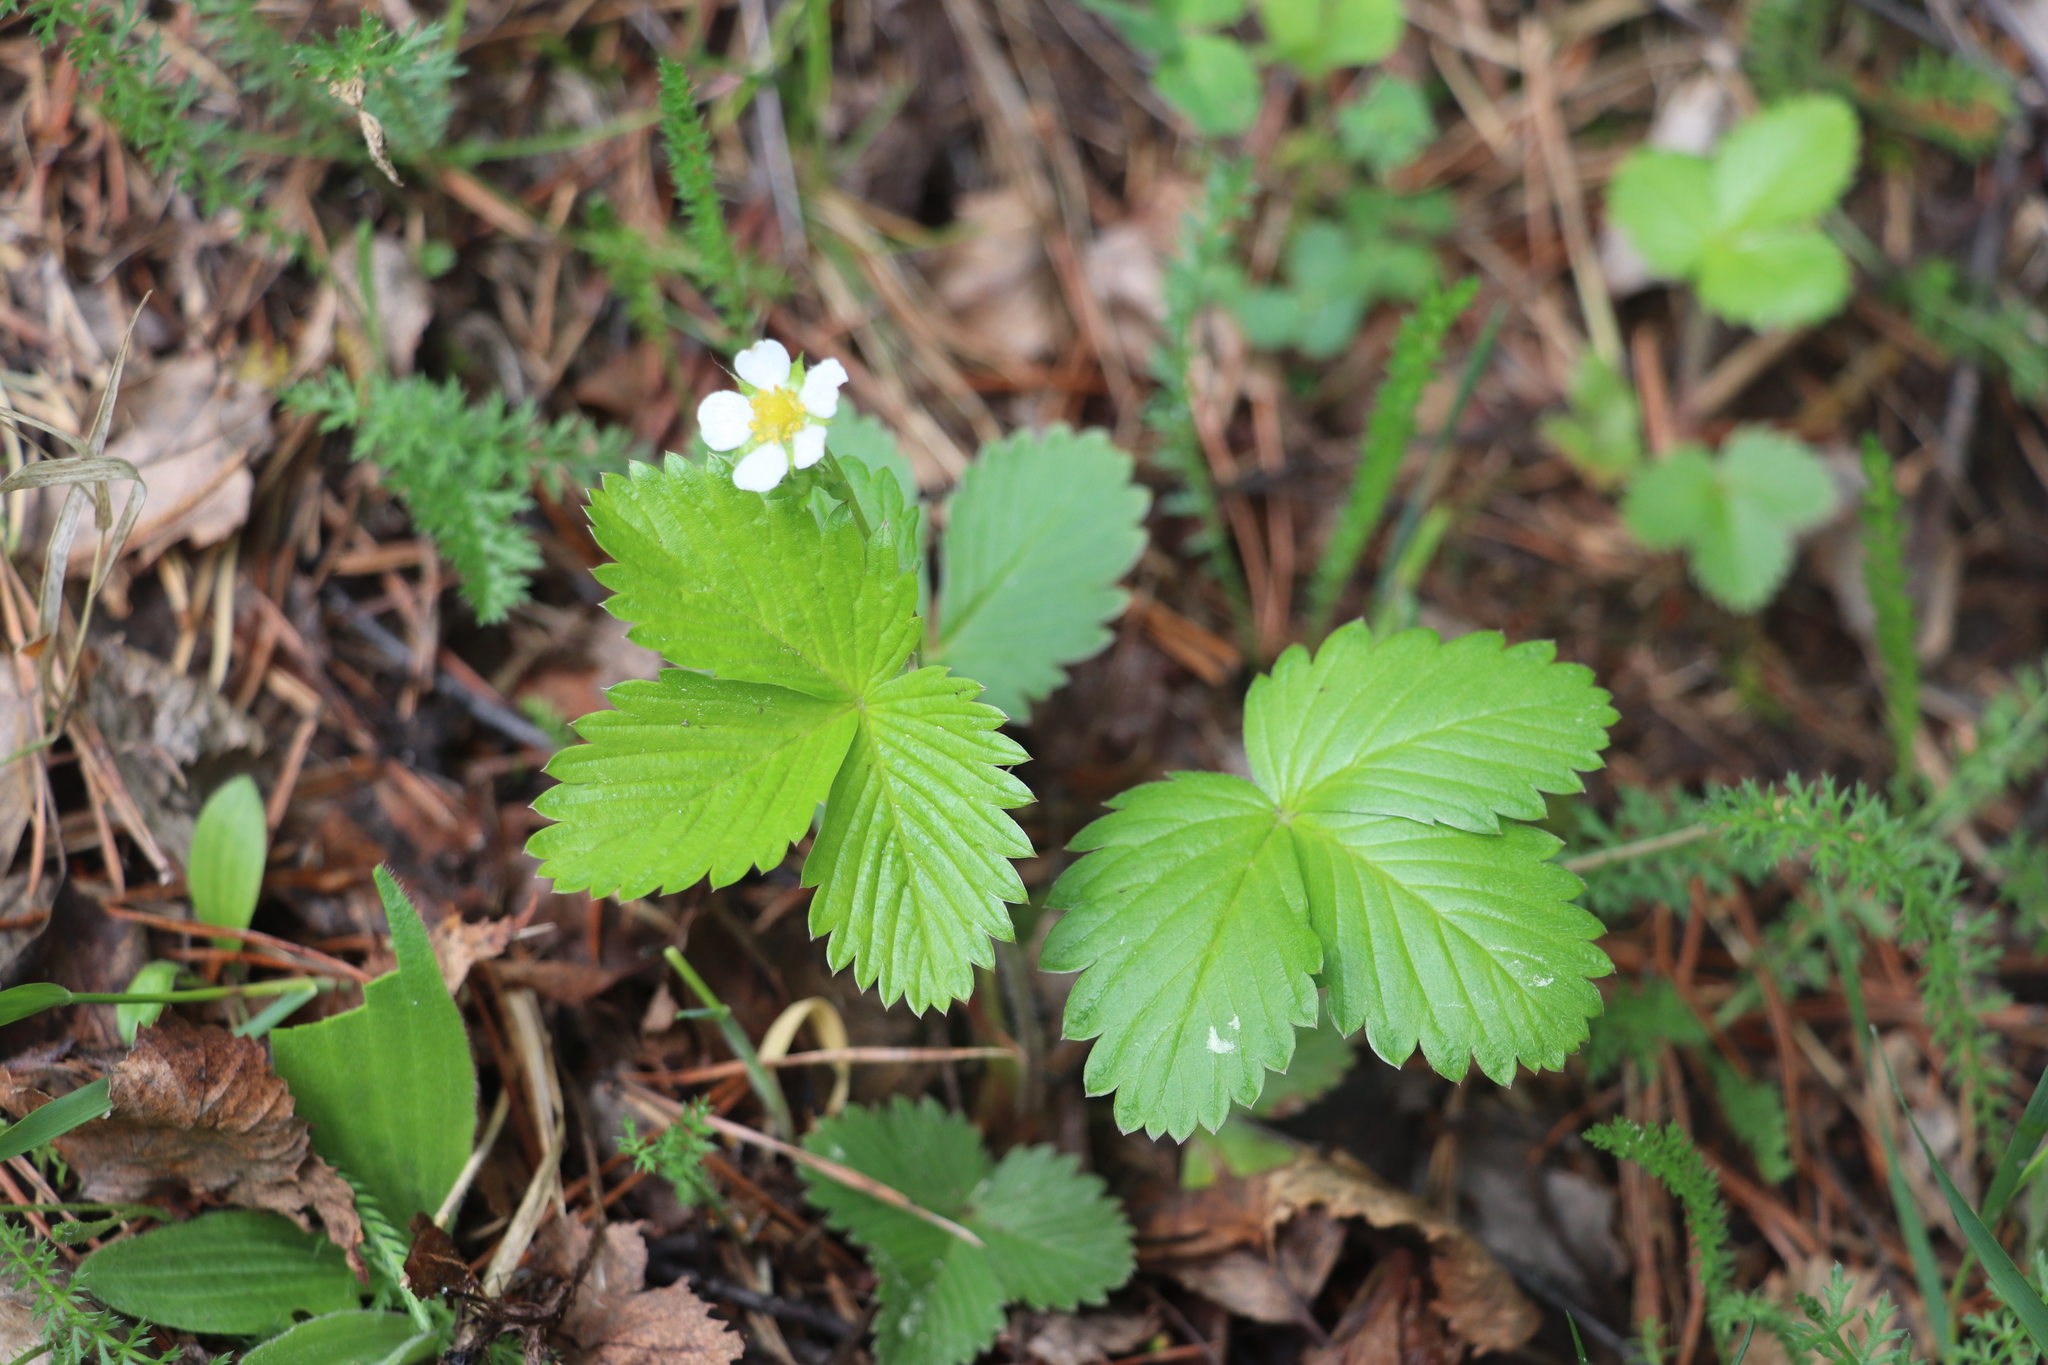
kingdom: Plantae
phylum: Tracheophyta
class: Magnoliopsida
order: Rosales
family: Rosaceae
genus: Fragaria
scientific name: Fragaria vesca
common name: Wild strawberry
